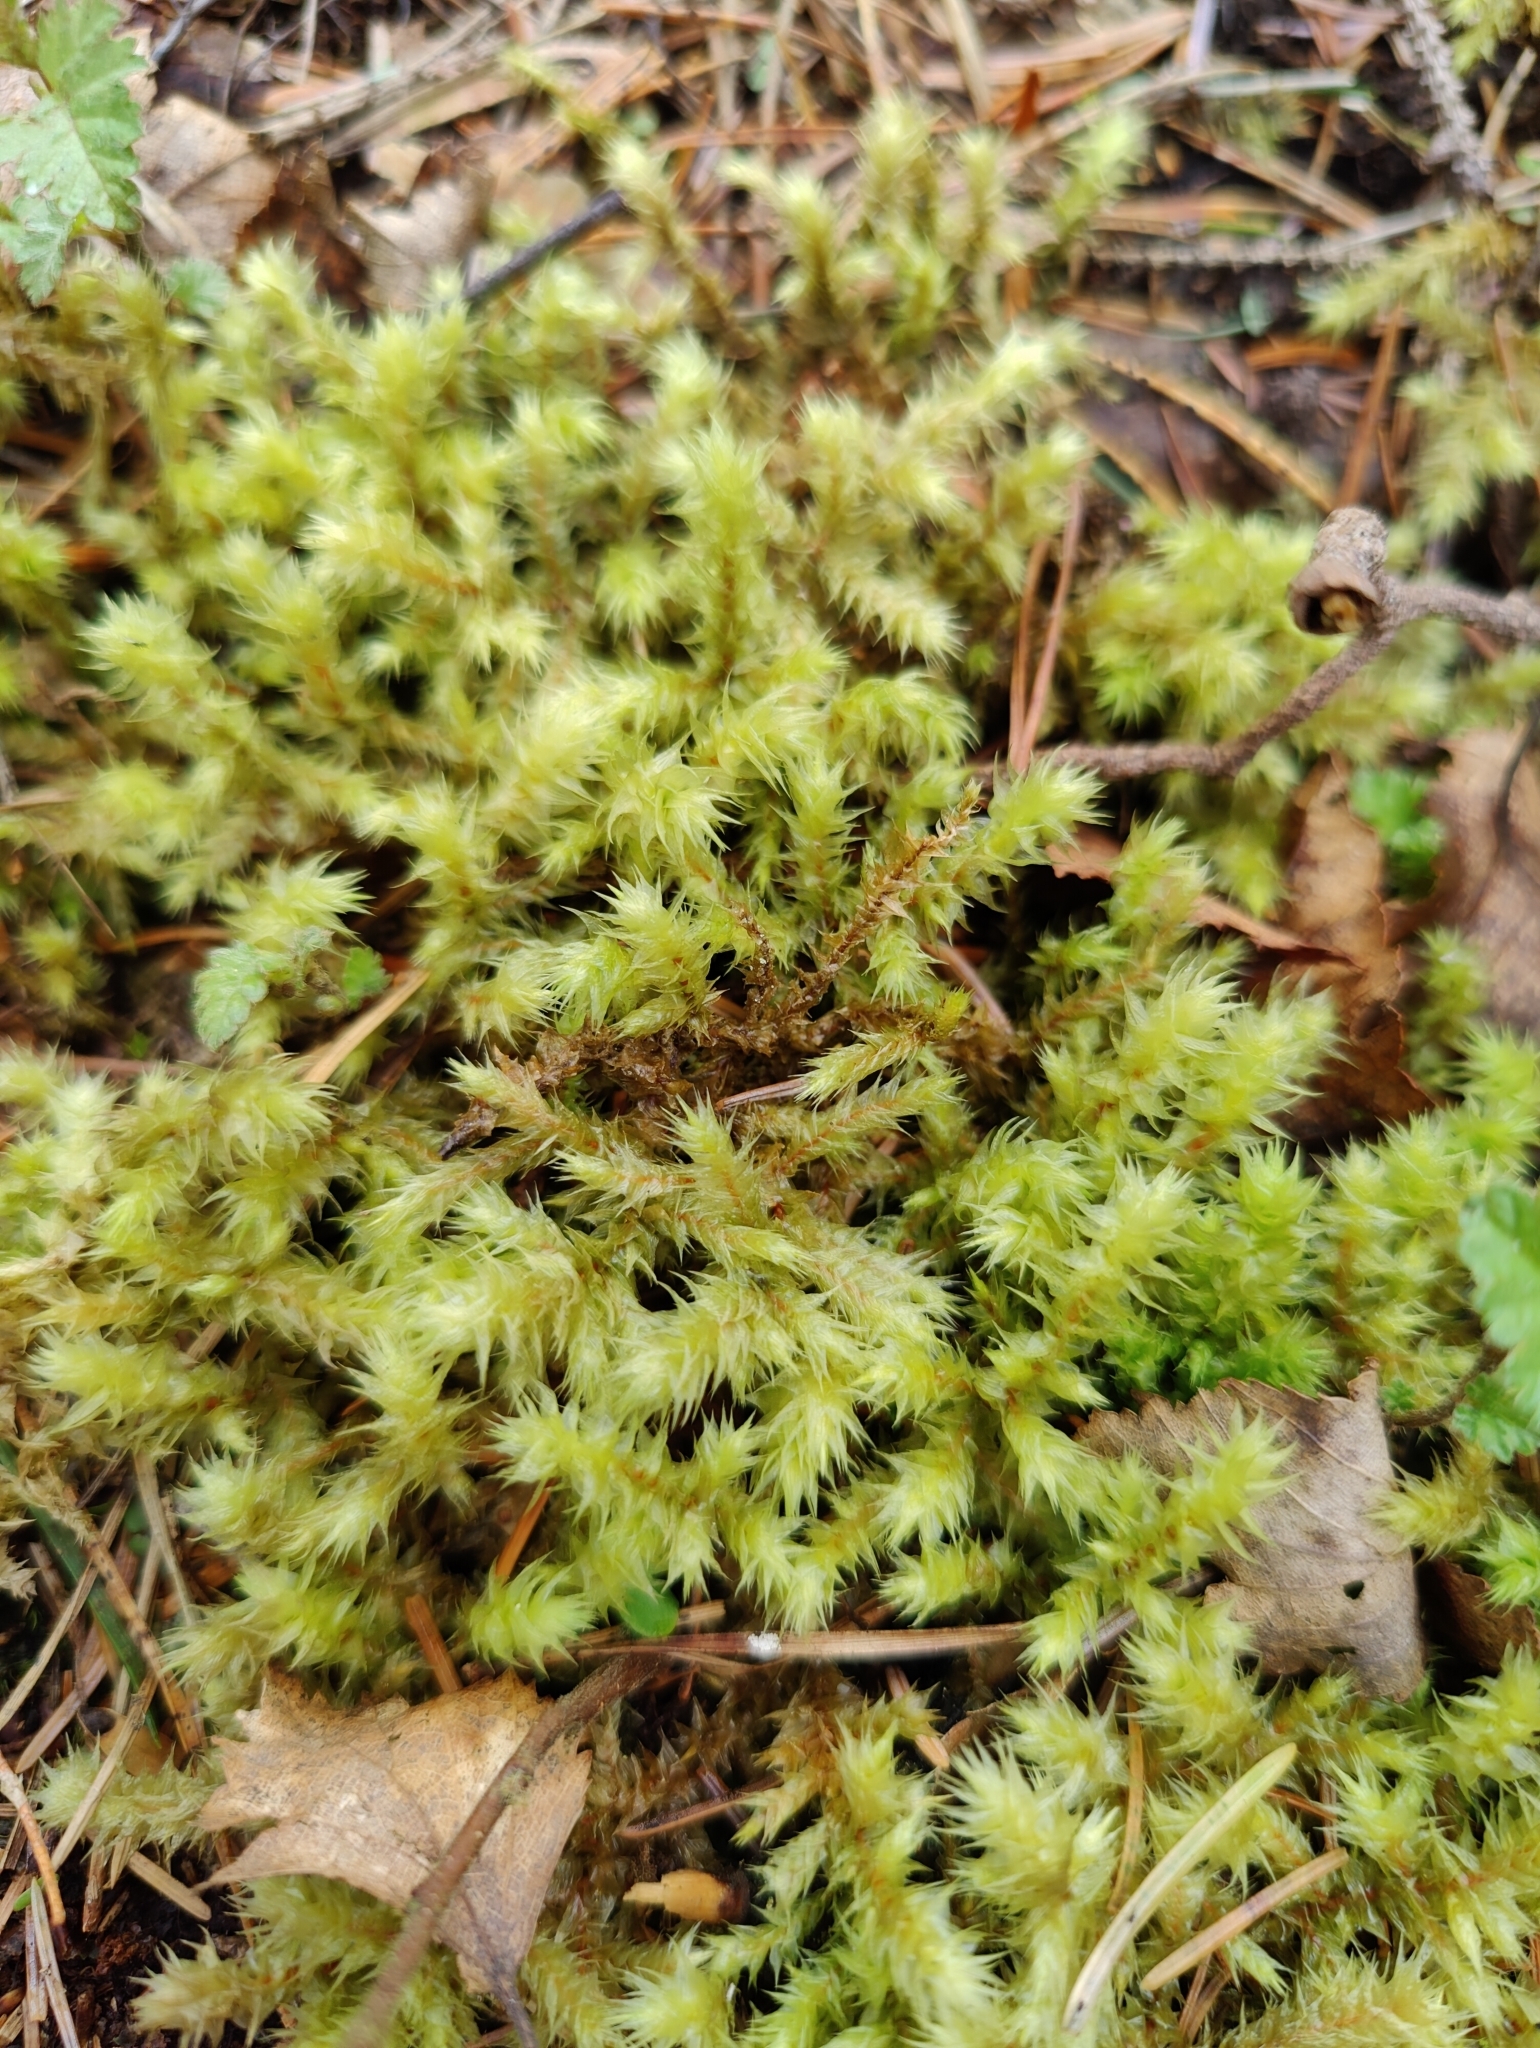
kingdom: Plantae
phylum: Bryophyta
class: Bryopsida
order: Hypnales
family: Hylocomiaceae
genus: Hylocomiadelphus
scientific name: Hylocomiadelphus triquetrus
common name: Rough goose neck moss
